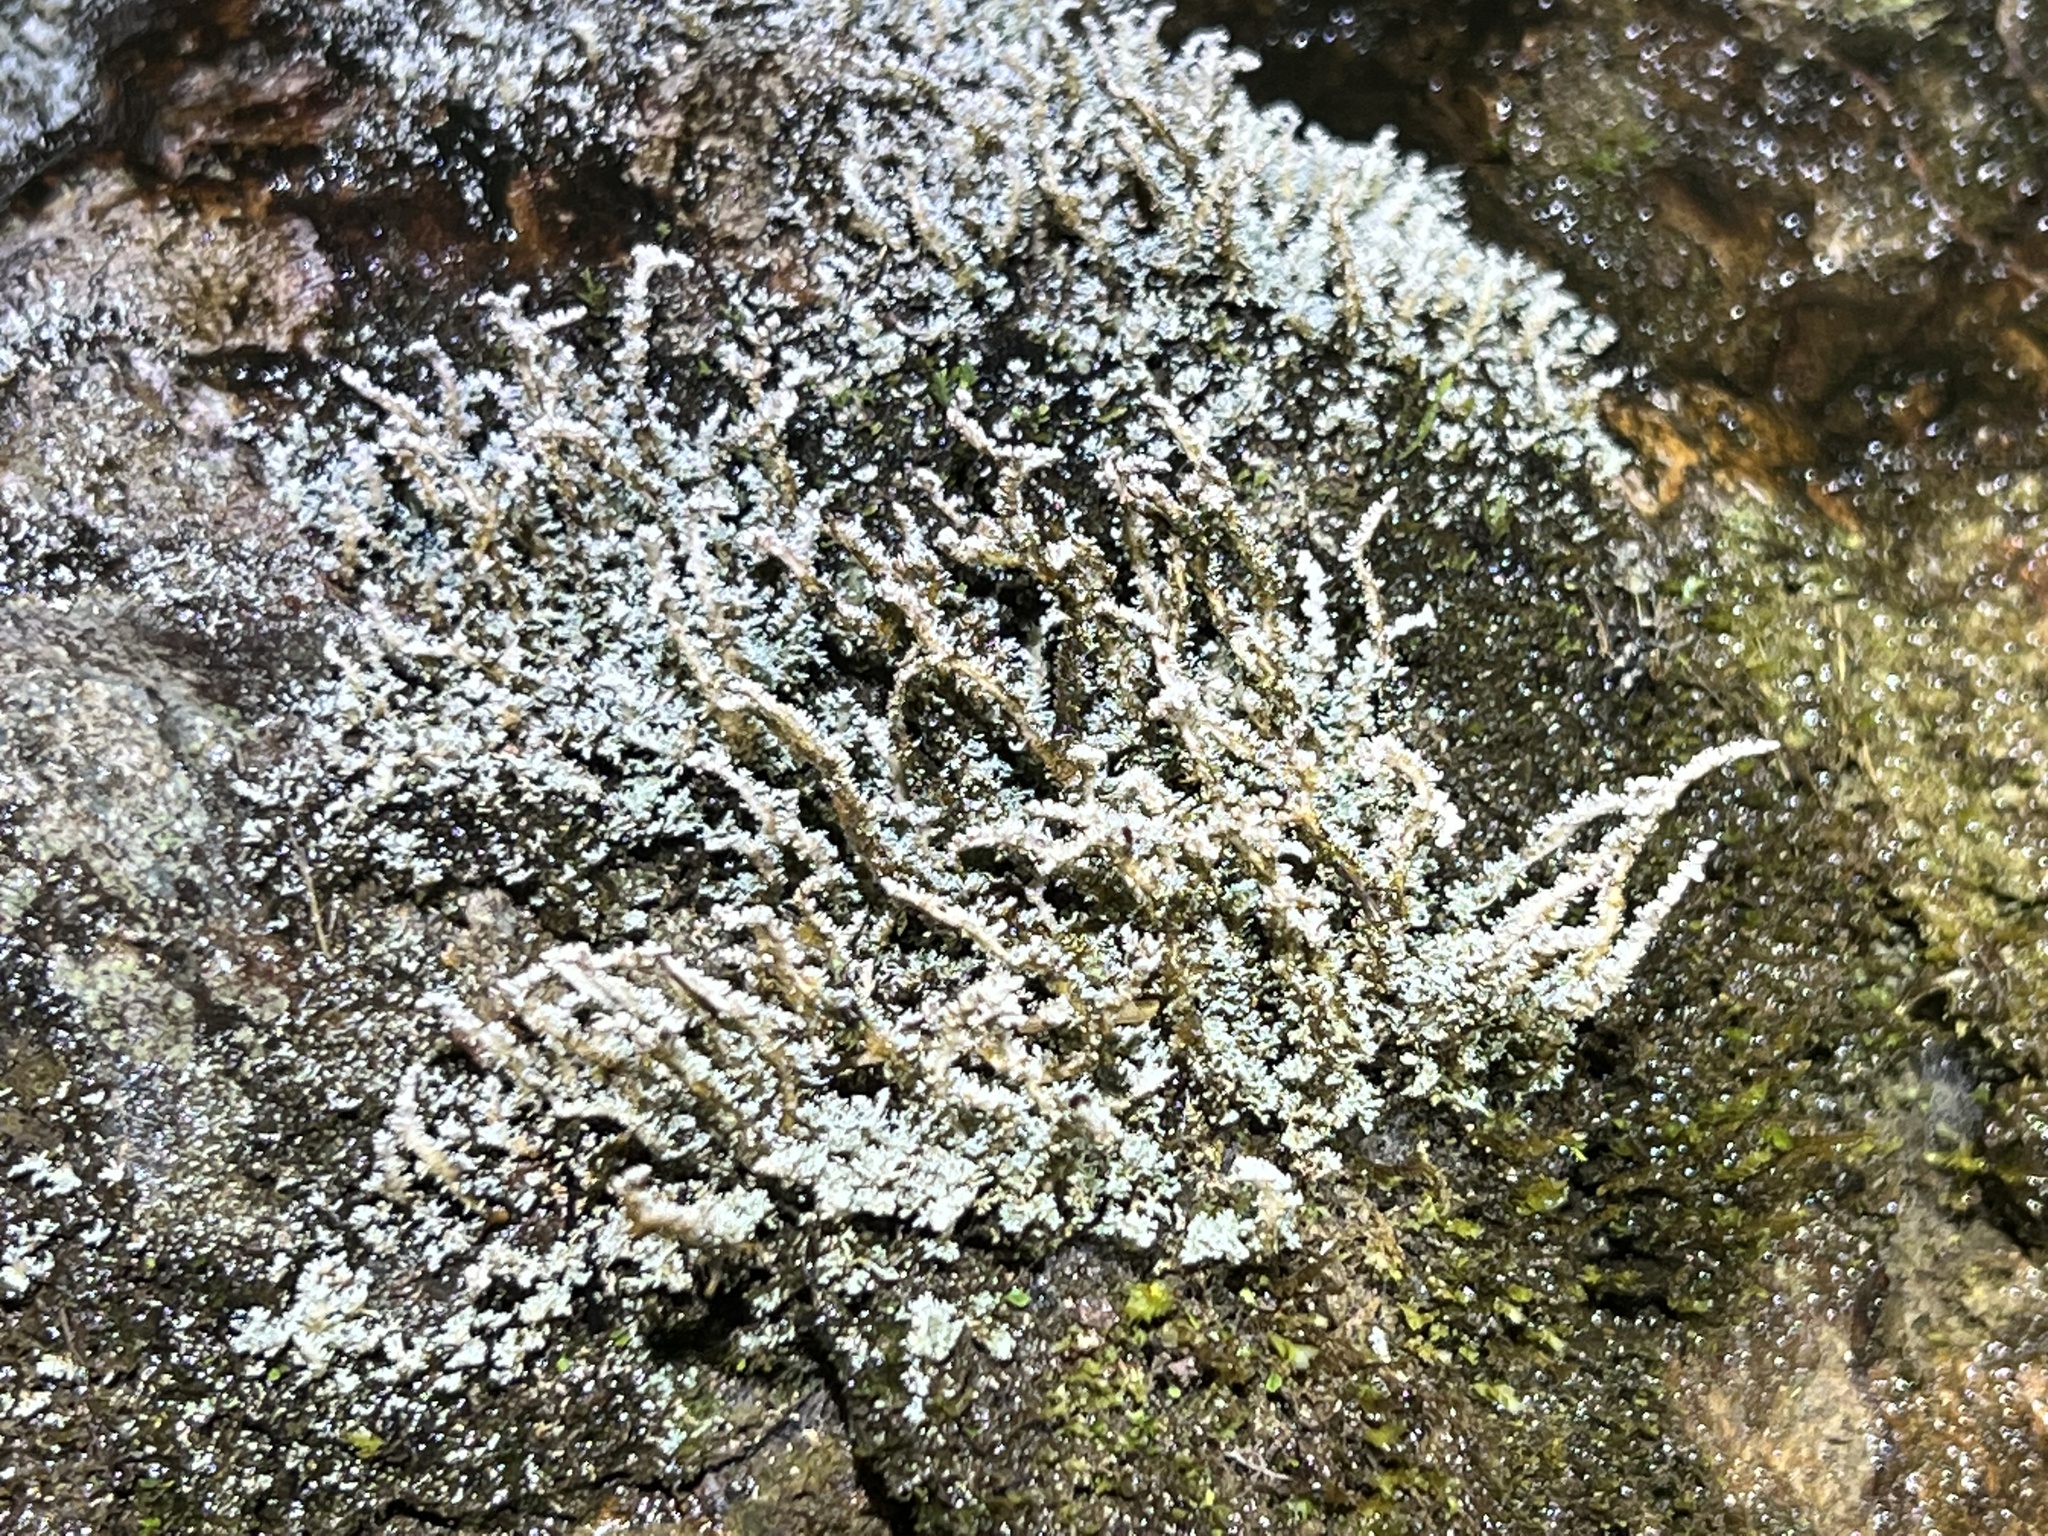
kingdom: Fungi
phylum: Ascomycota
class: Lecanoromycetes
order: Lecanorales
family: Stereocaulaceae
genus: Stereocaulon
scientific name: Stereocaulon ramulosum
